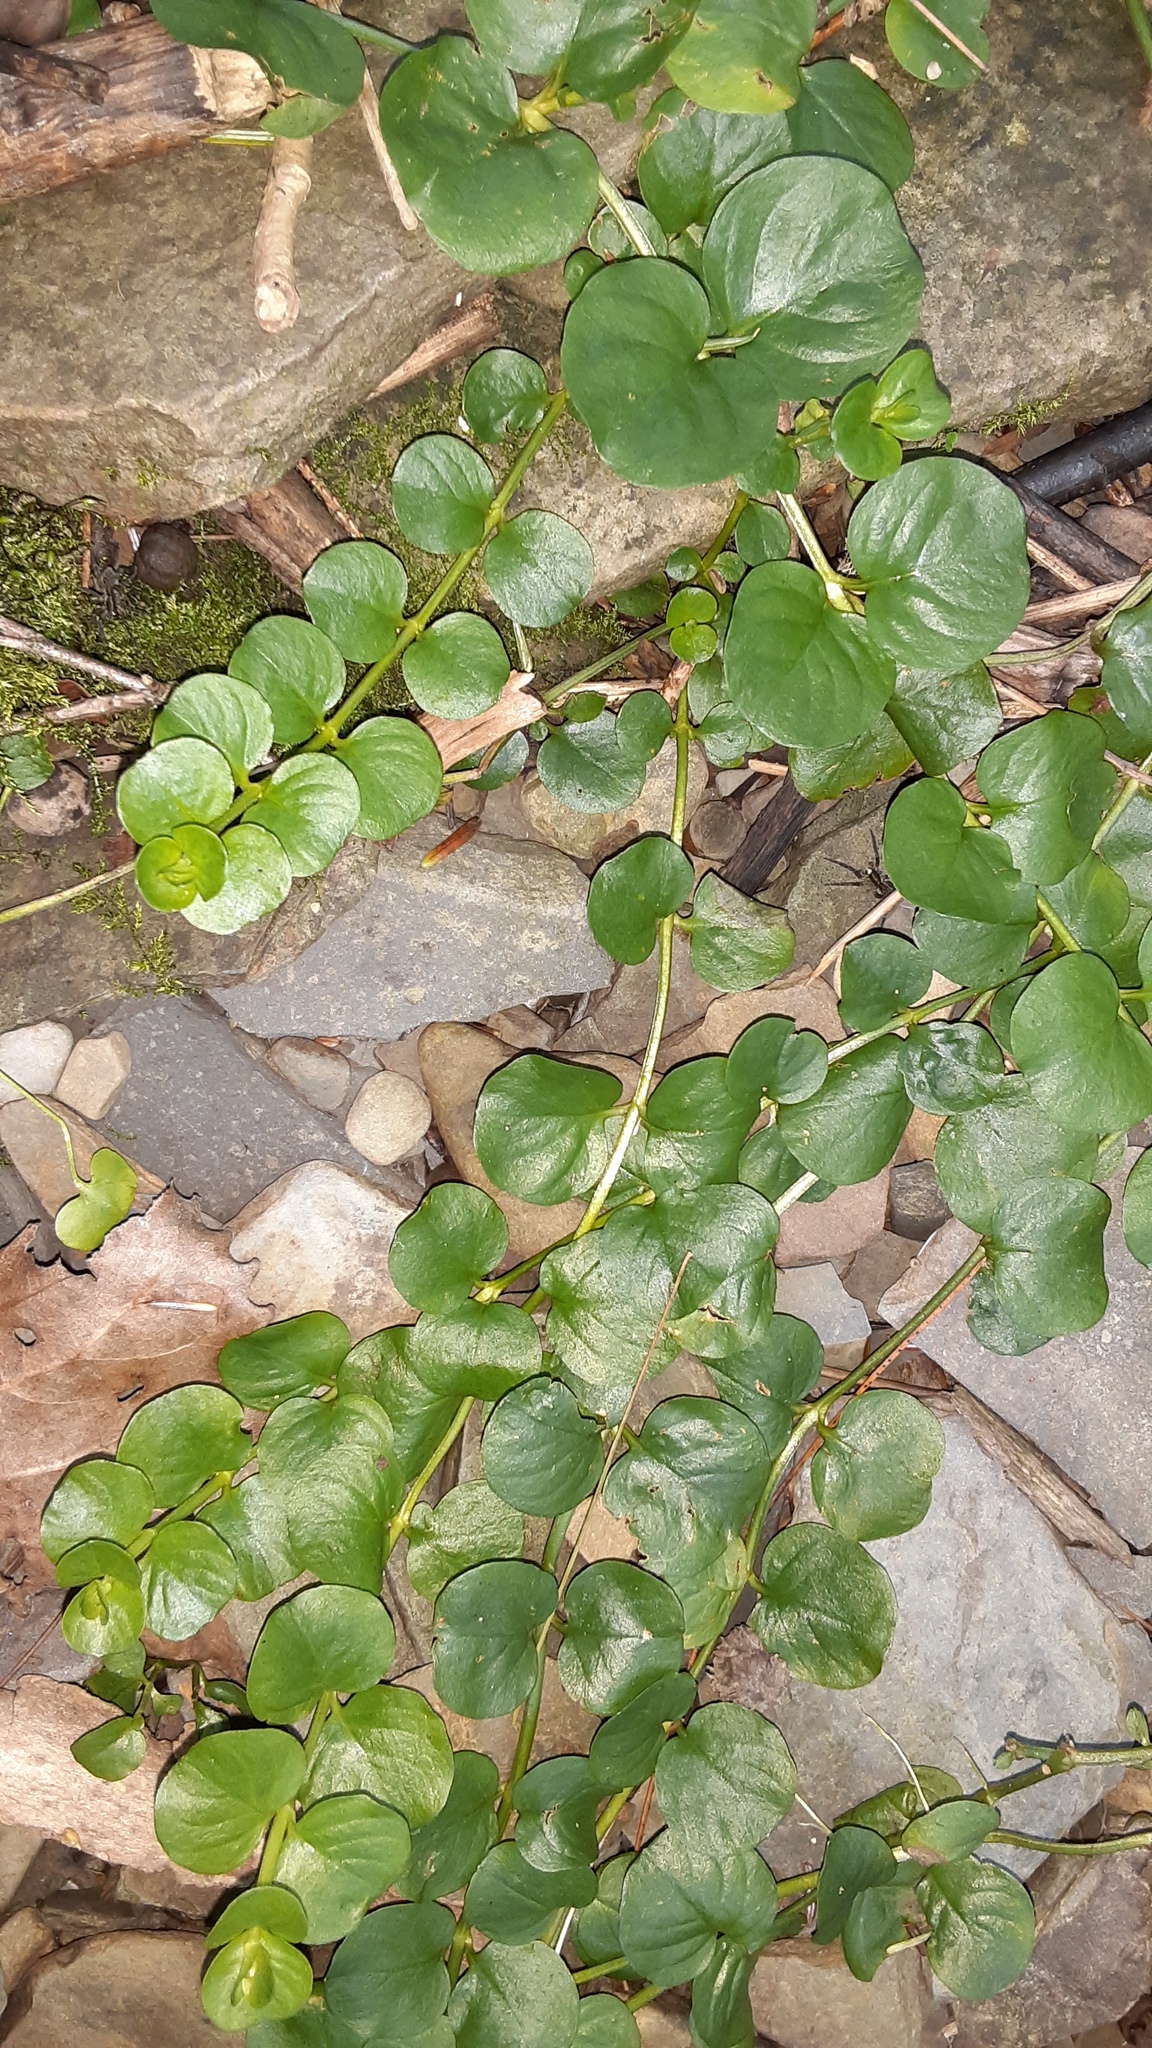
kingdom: Plantae
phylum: Tracheophyta
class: Magnoliopsida
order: Ericales
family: Primulaceae
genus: Lysimachia
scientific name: Lysimachia nummularia
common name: Moneywort
